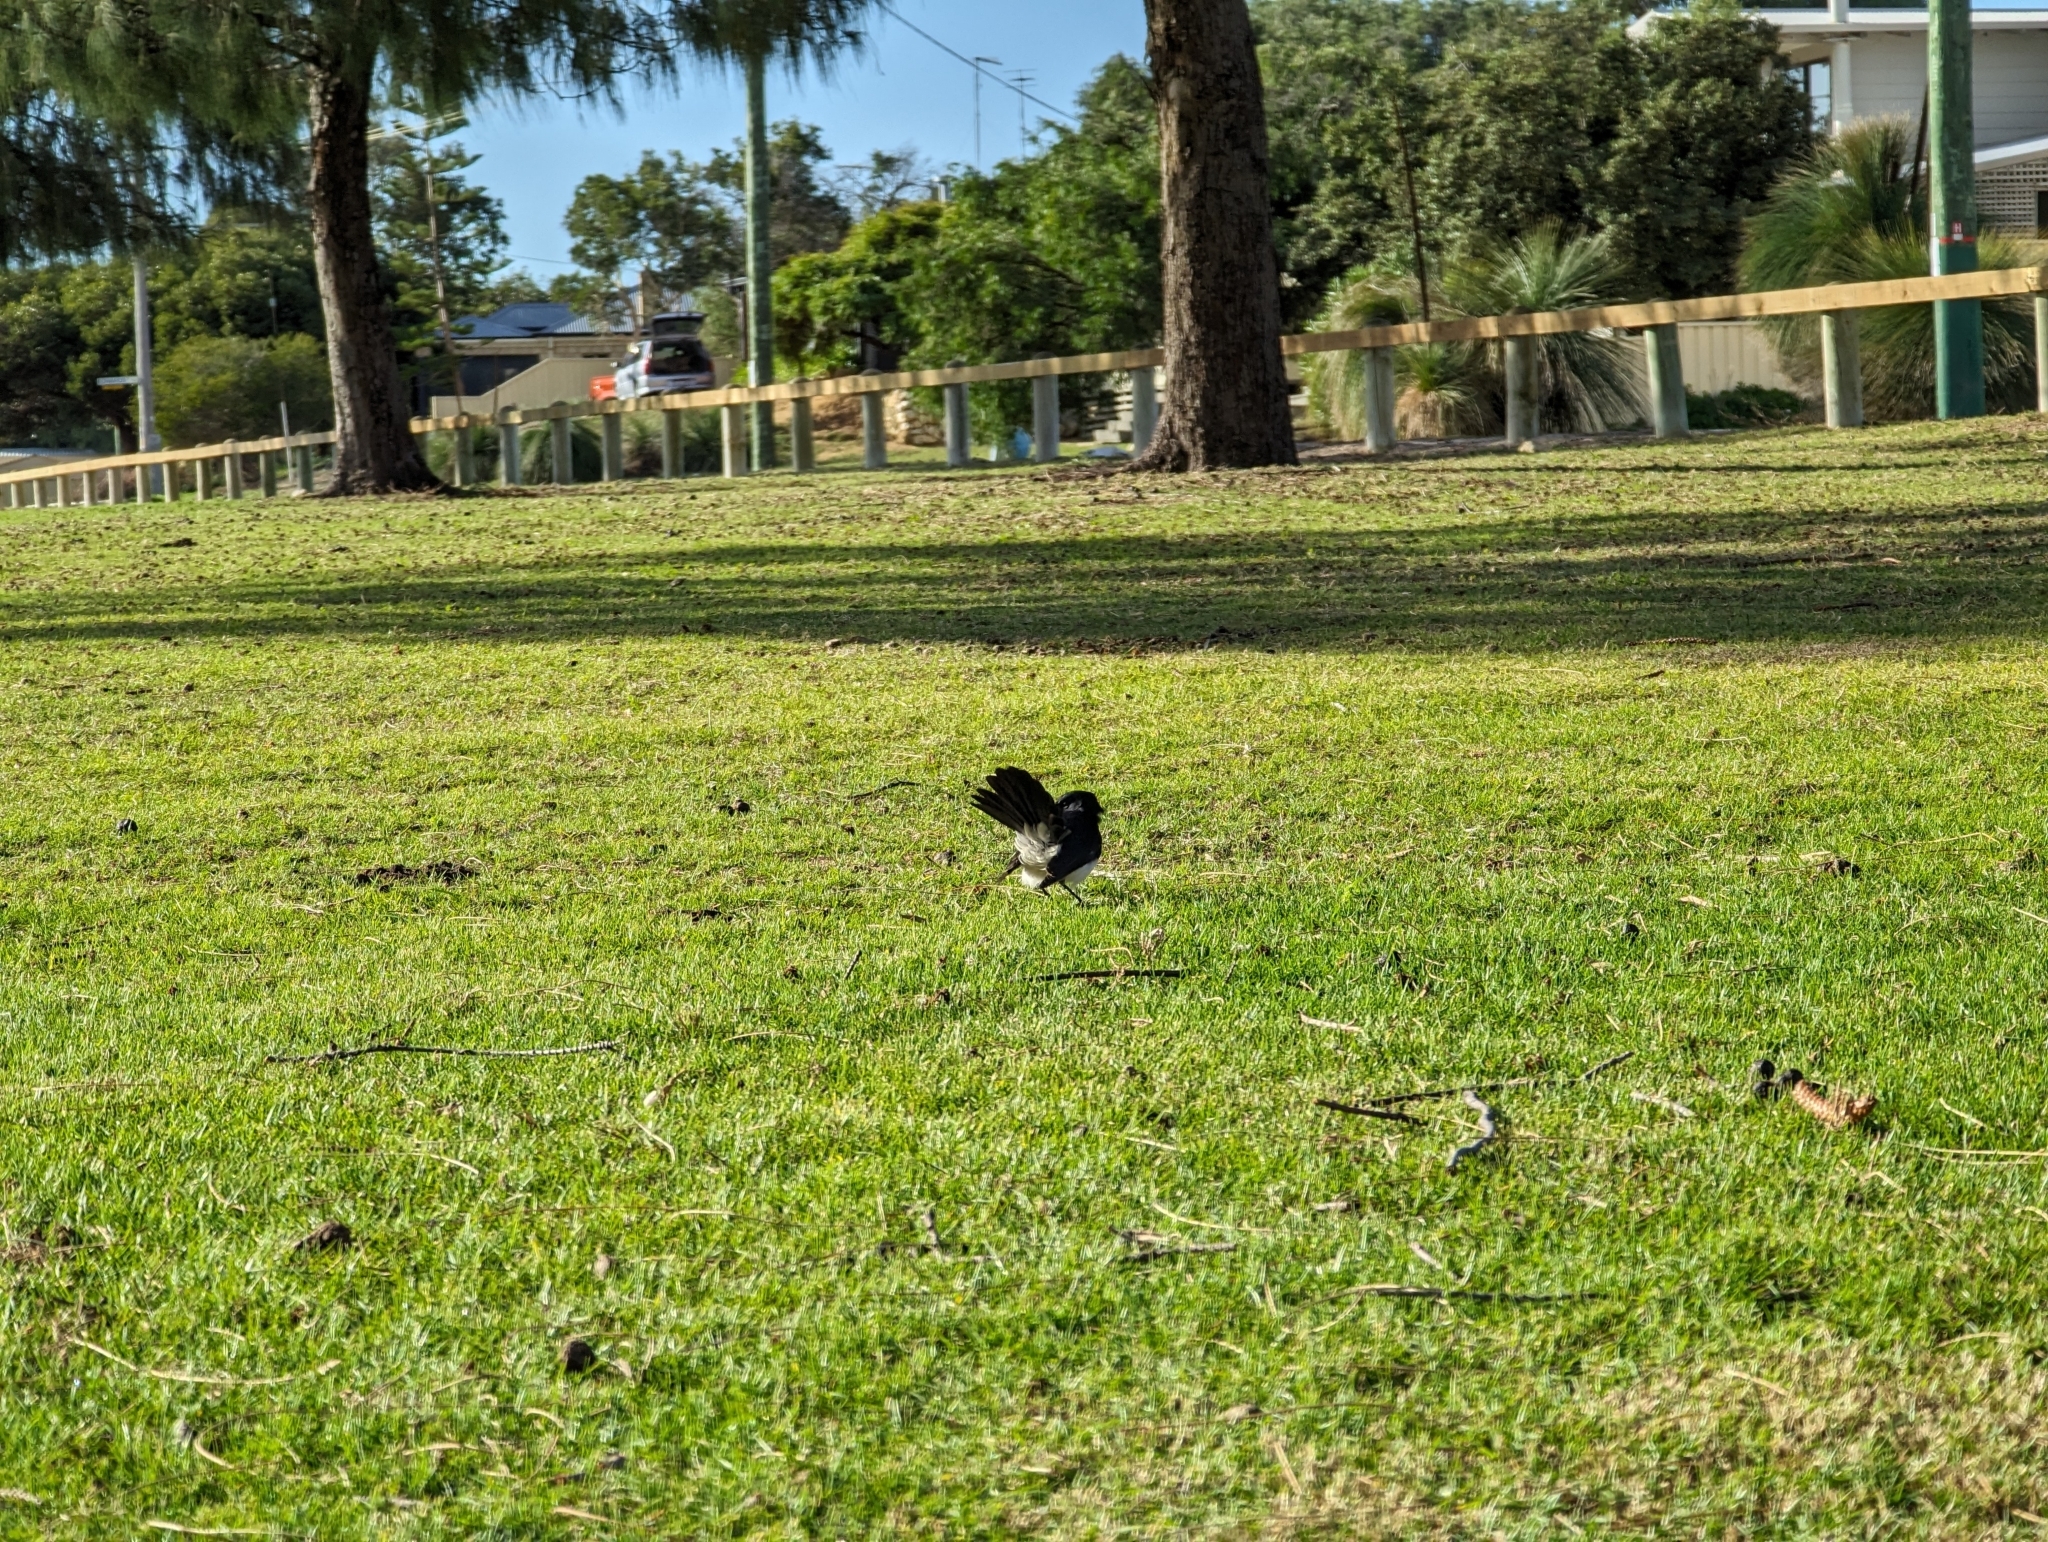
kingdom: Animalia
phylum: Chordata
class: Aves
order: Passeriformes
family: Rhipiduridae
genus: Rhipidura
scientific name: Rhipidura leucophrys
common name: Willie wagtail
